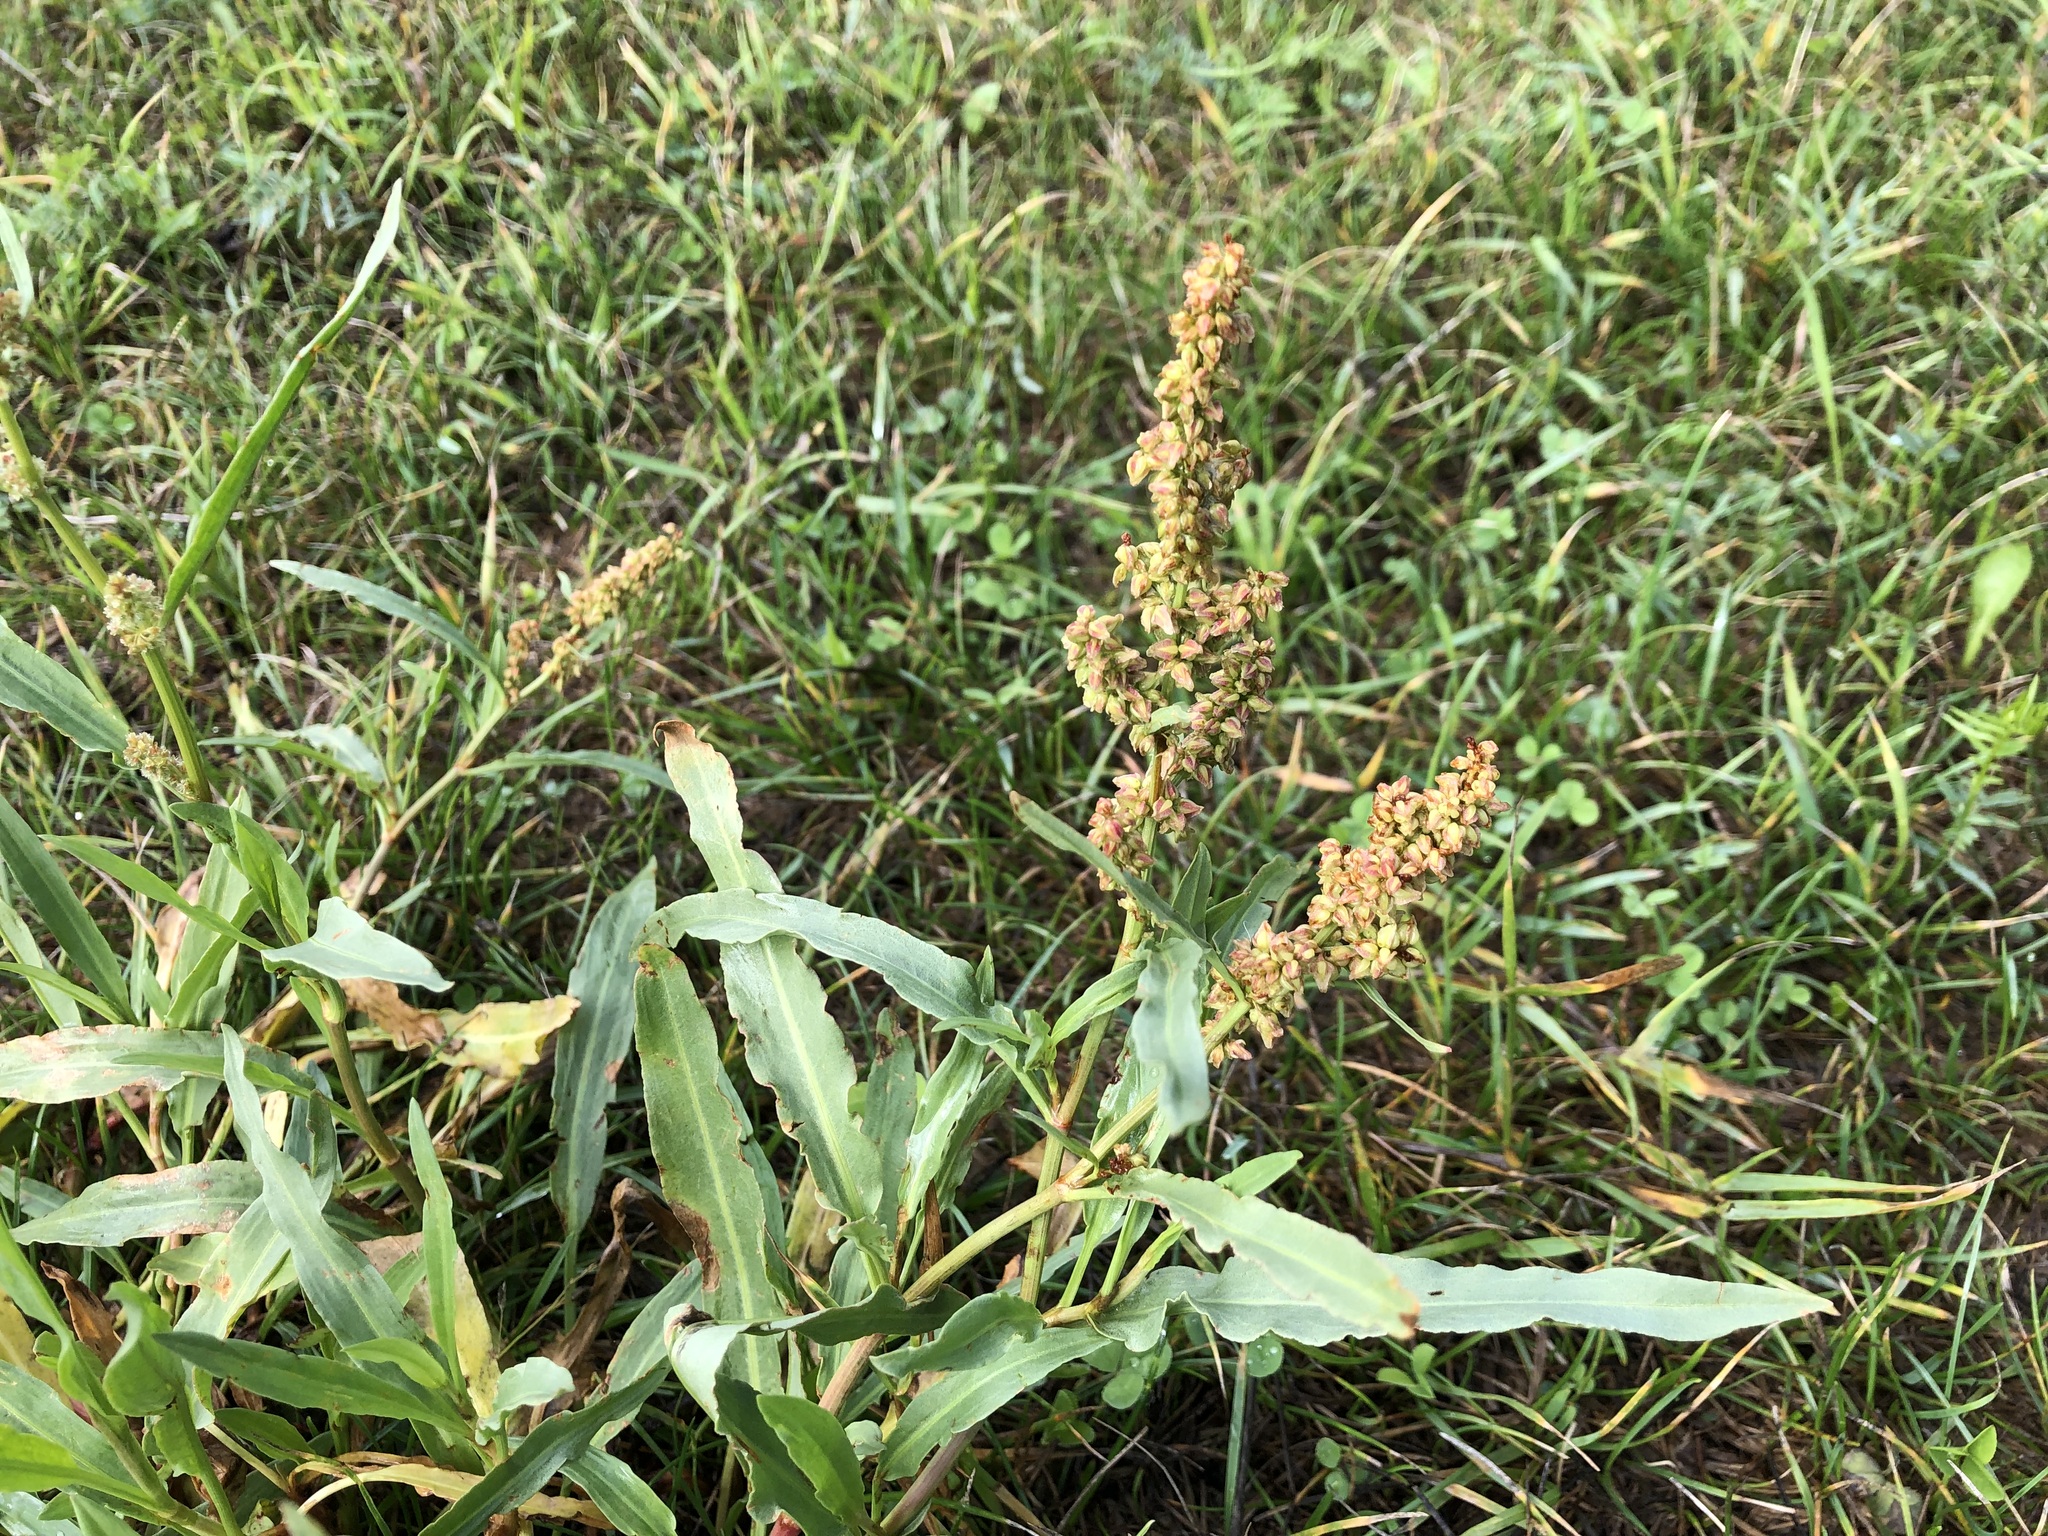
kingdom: Plantae
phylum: Tracheophyta
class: Magnoliopsida
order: Caryophyllales
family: Polygonaceae
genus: Rumex
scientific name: Rumex transitorius
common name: Pacific willow dock
